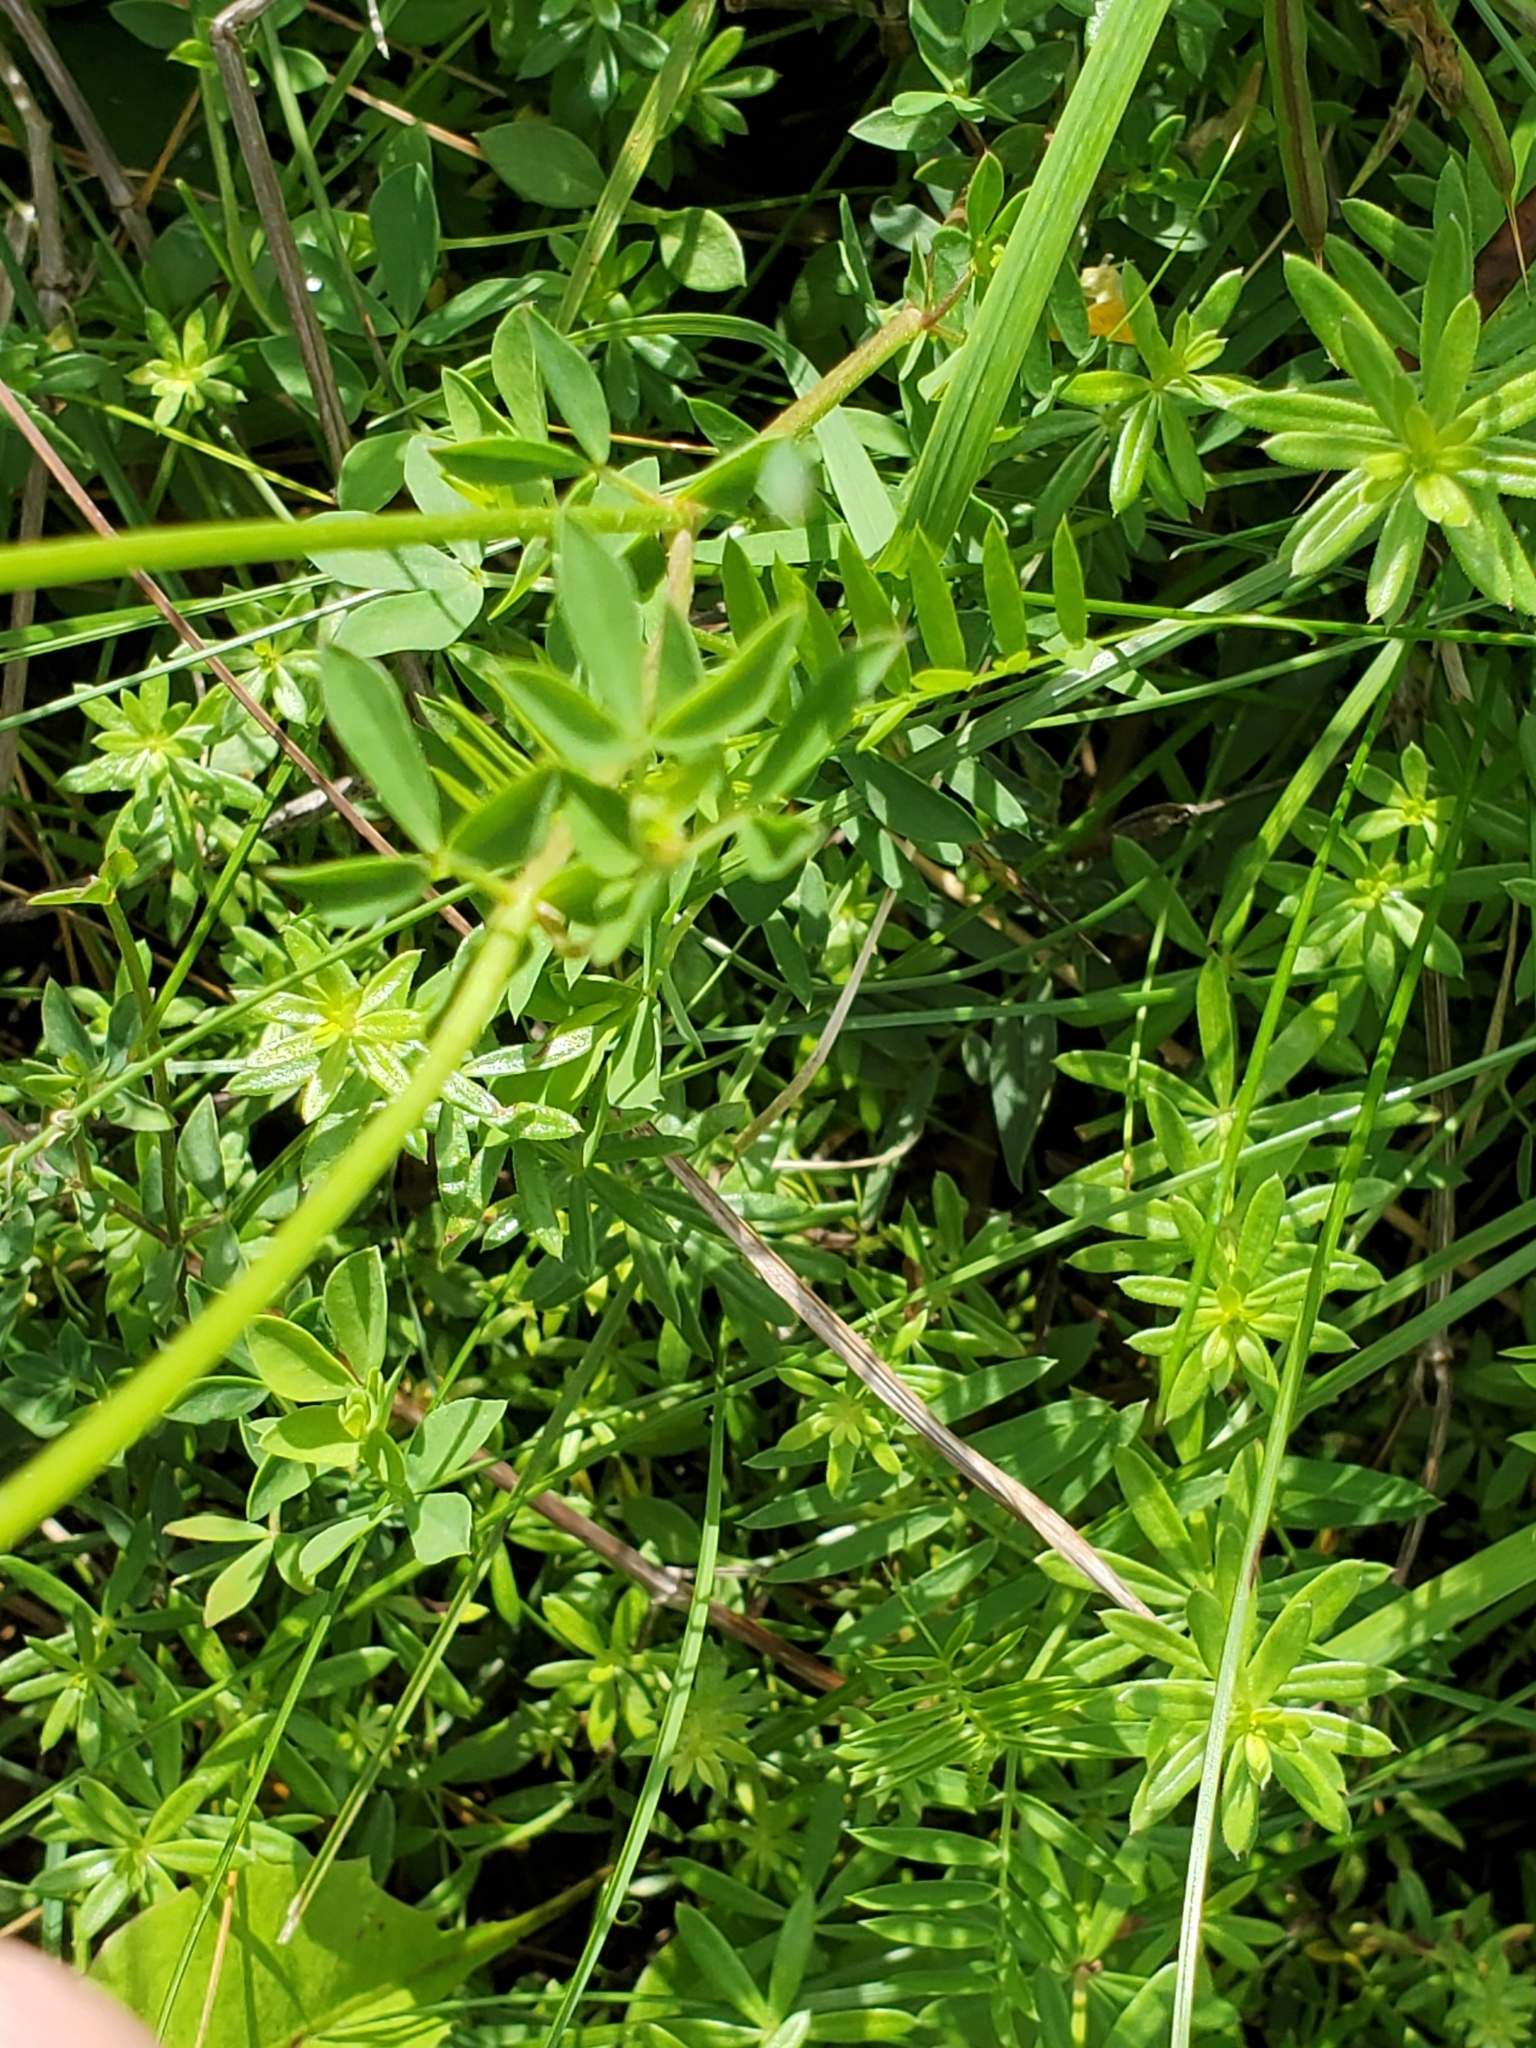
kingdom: Plantae
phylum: Tracheophyta
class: Magnoliopsida
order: Fabales
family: Fabaceae
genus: Lotus
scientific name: Lotus corniculatus
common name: Common bird's-foot-trefoil
